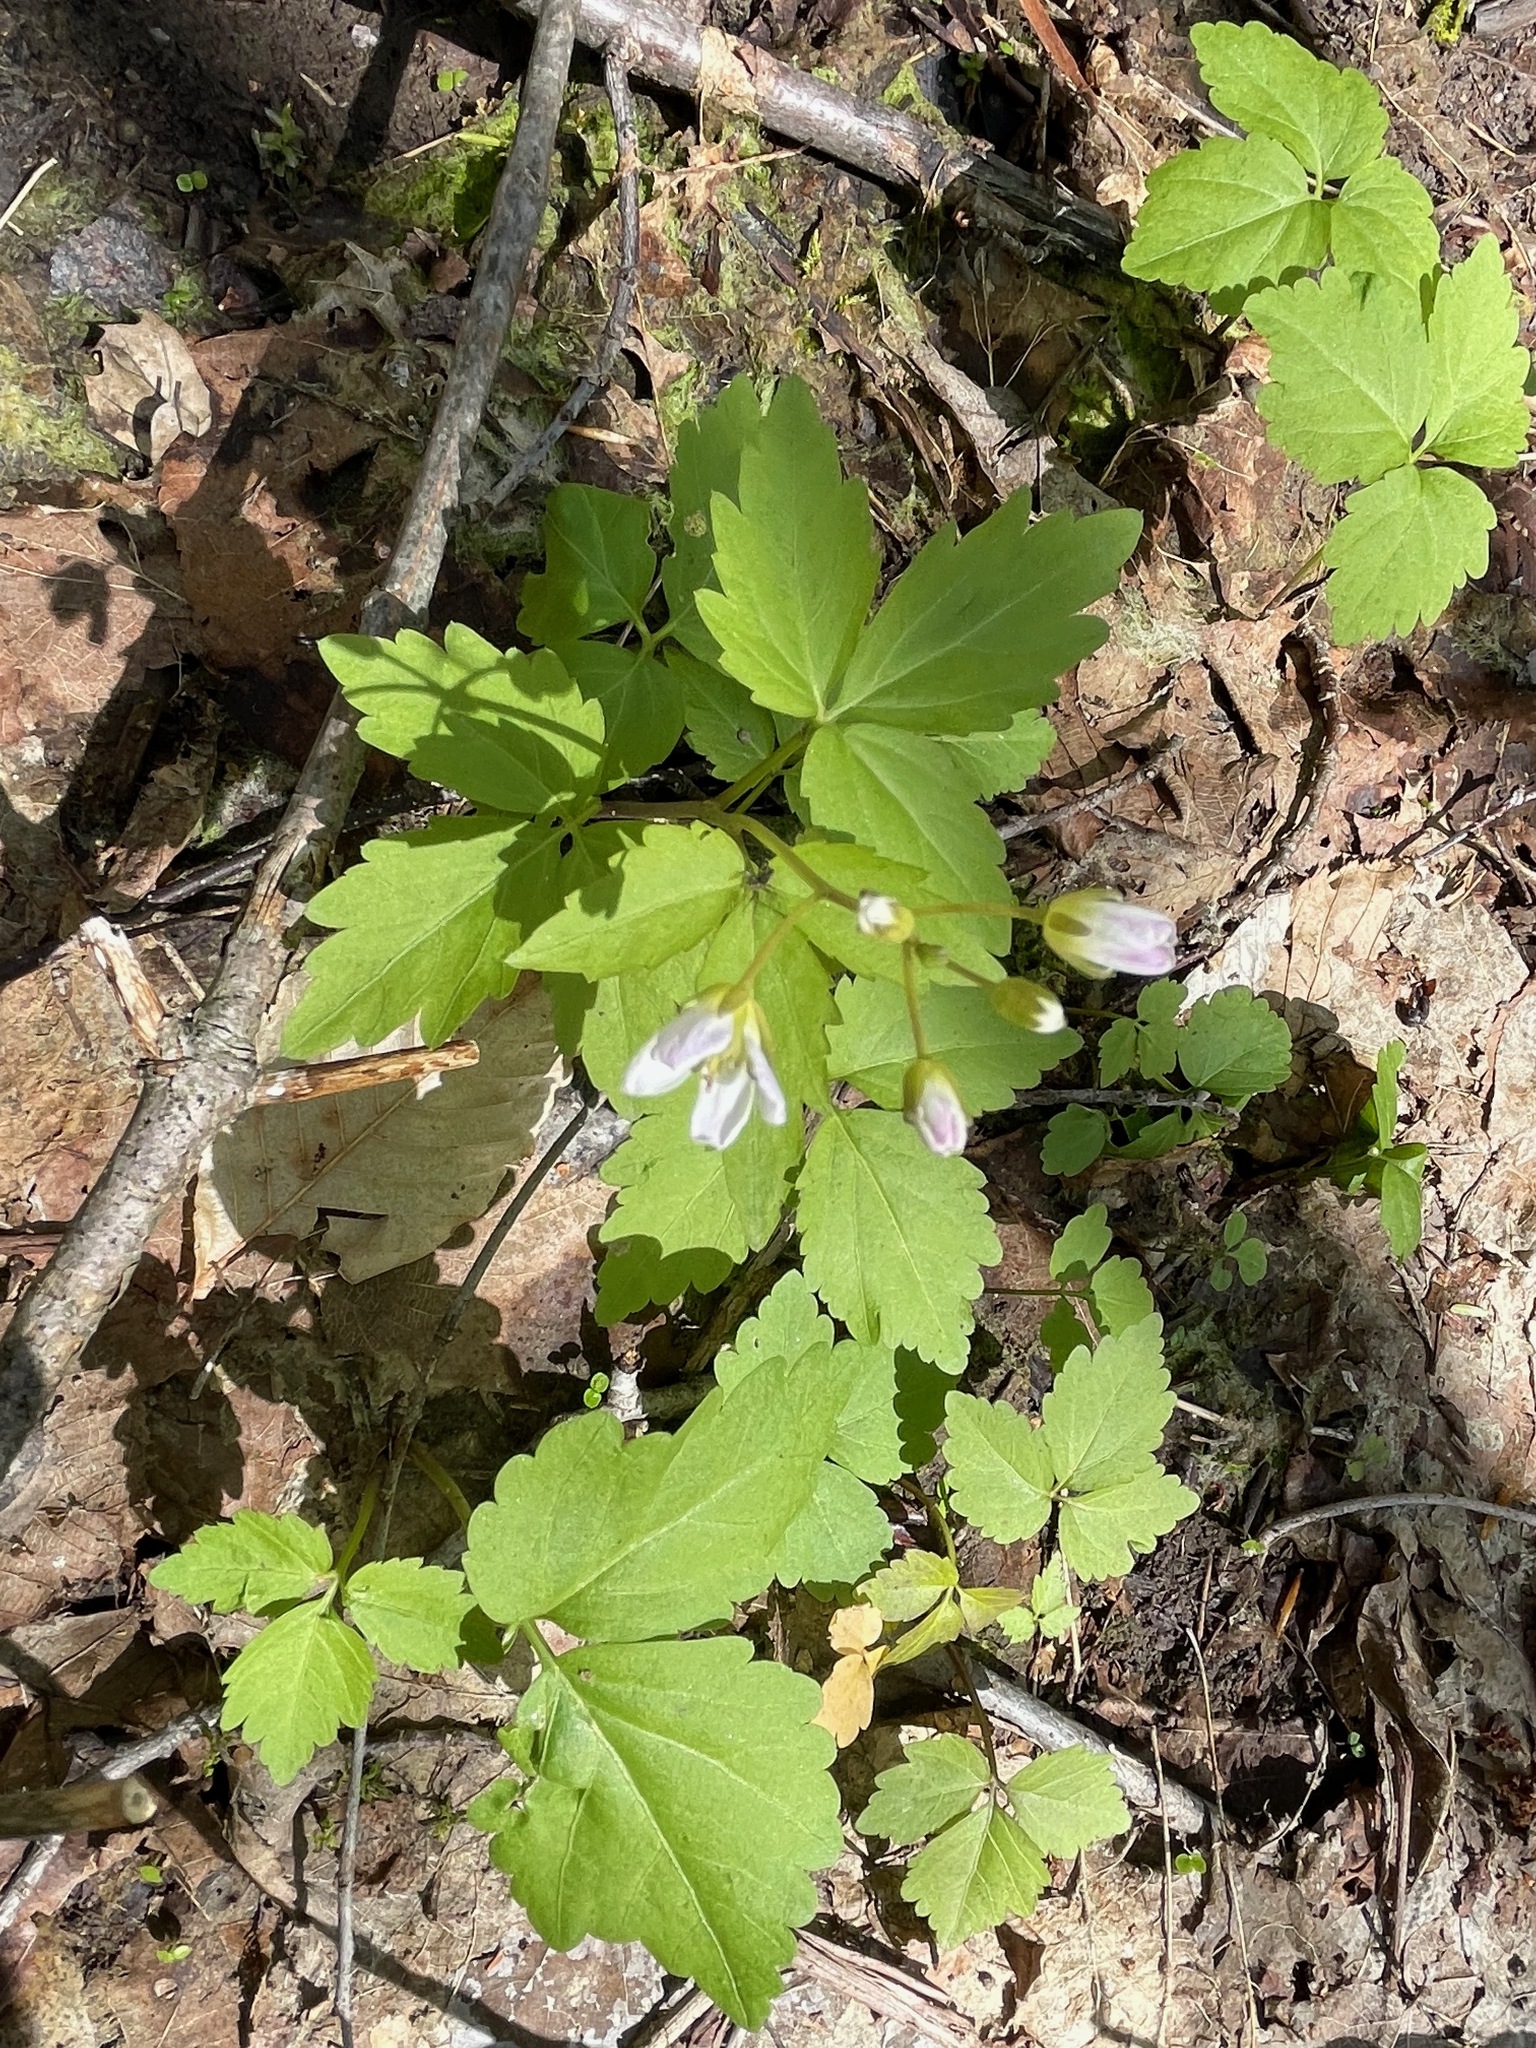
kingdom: Plantae
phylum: Tracheophyta
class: Magnoliopsida
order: Brassicales
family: Brassicaceae
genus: Cardamine
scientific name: Cardamine diphylla
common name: Broad-leaved toothwort
